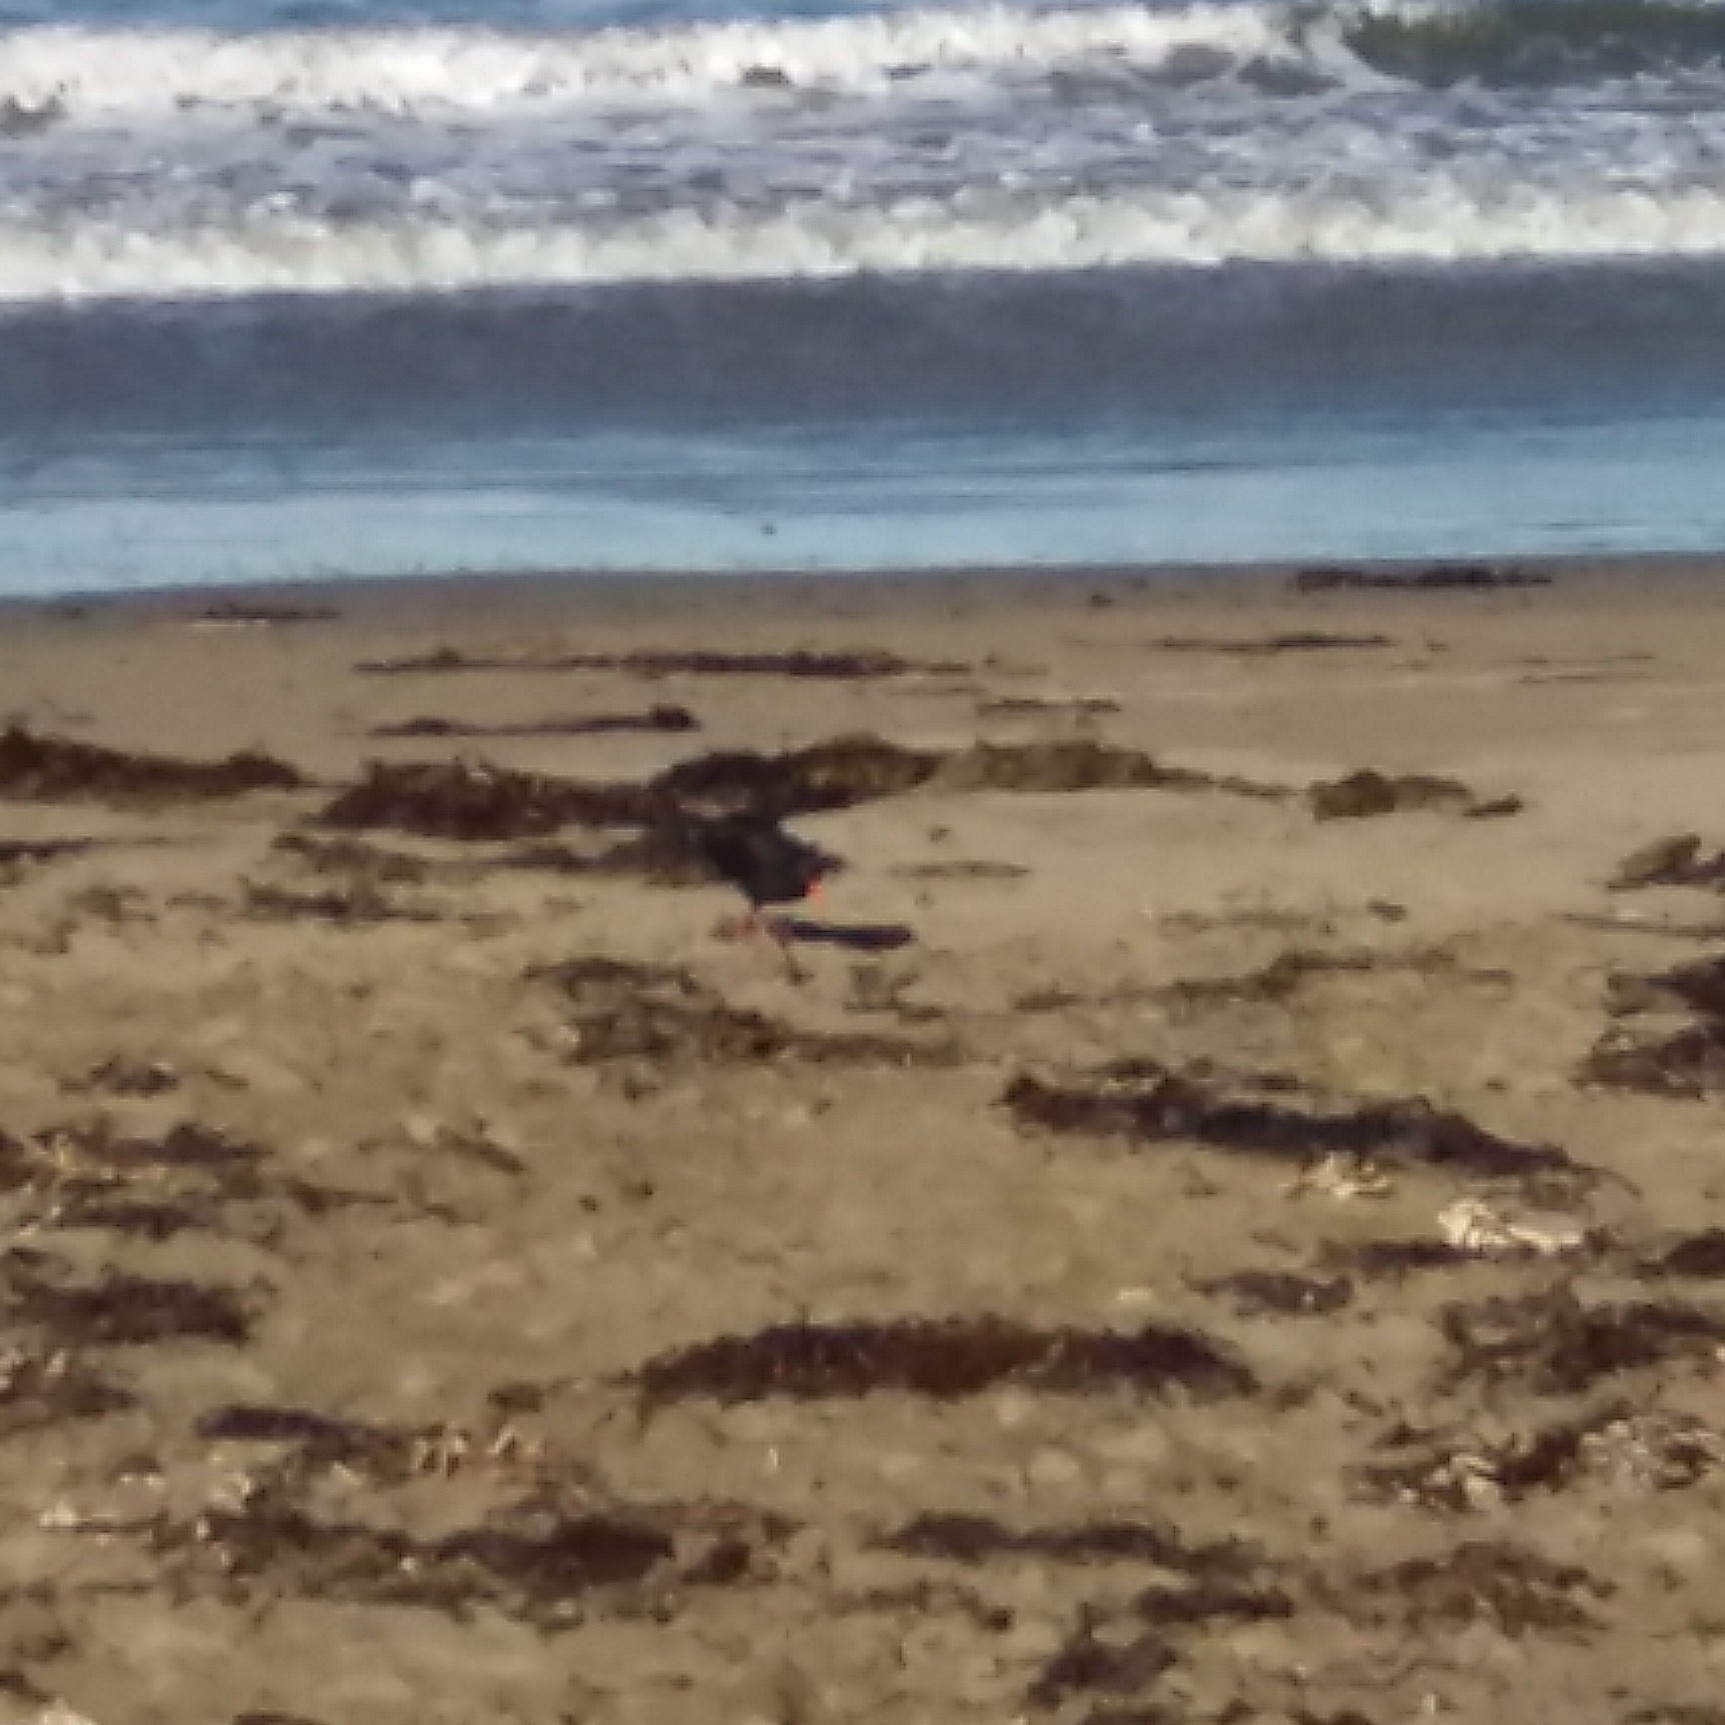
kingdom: Animalia
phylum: Chordata
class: Aves
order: Charadriiformes
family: Haematopodidae
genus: Haematopus
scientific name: Haematopus unicolor
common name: Variable oystercatcher
